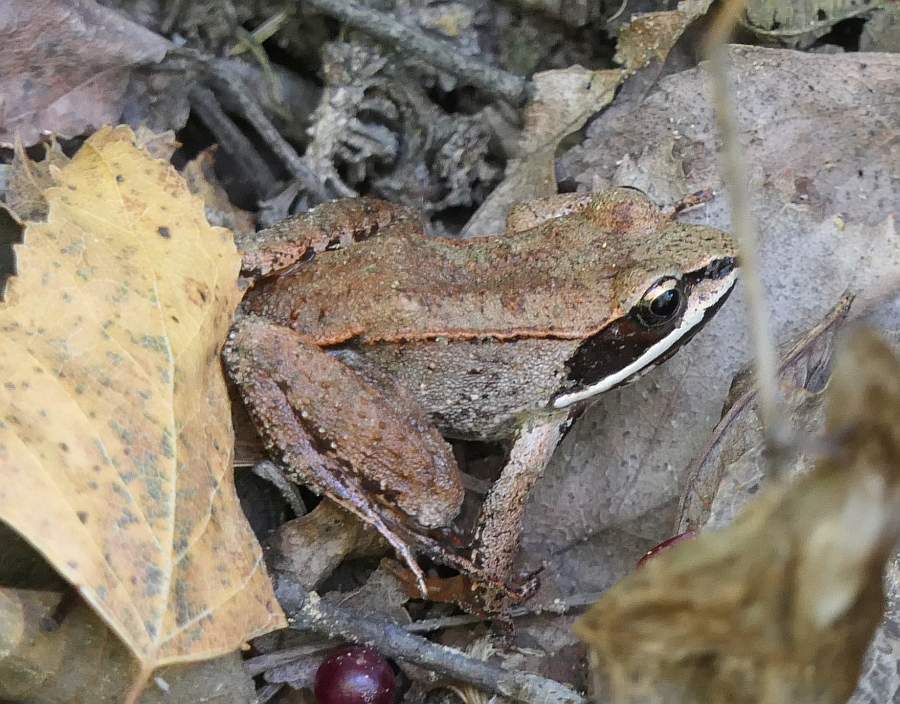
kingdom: Animalia
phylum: Chordata
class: Amphibia
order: Anura
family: Ranidae
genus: Lithobates
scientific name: Lithobates sylvaticus
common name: Wood frog
